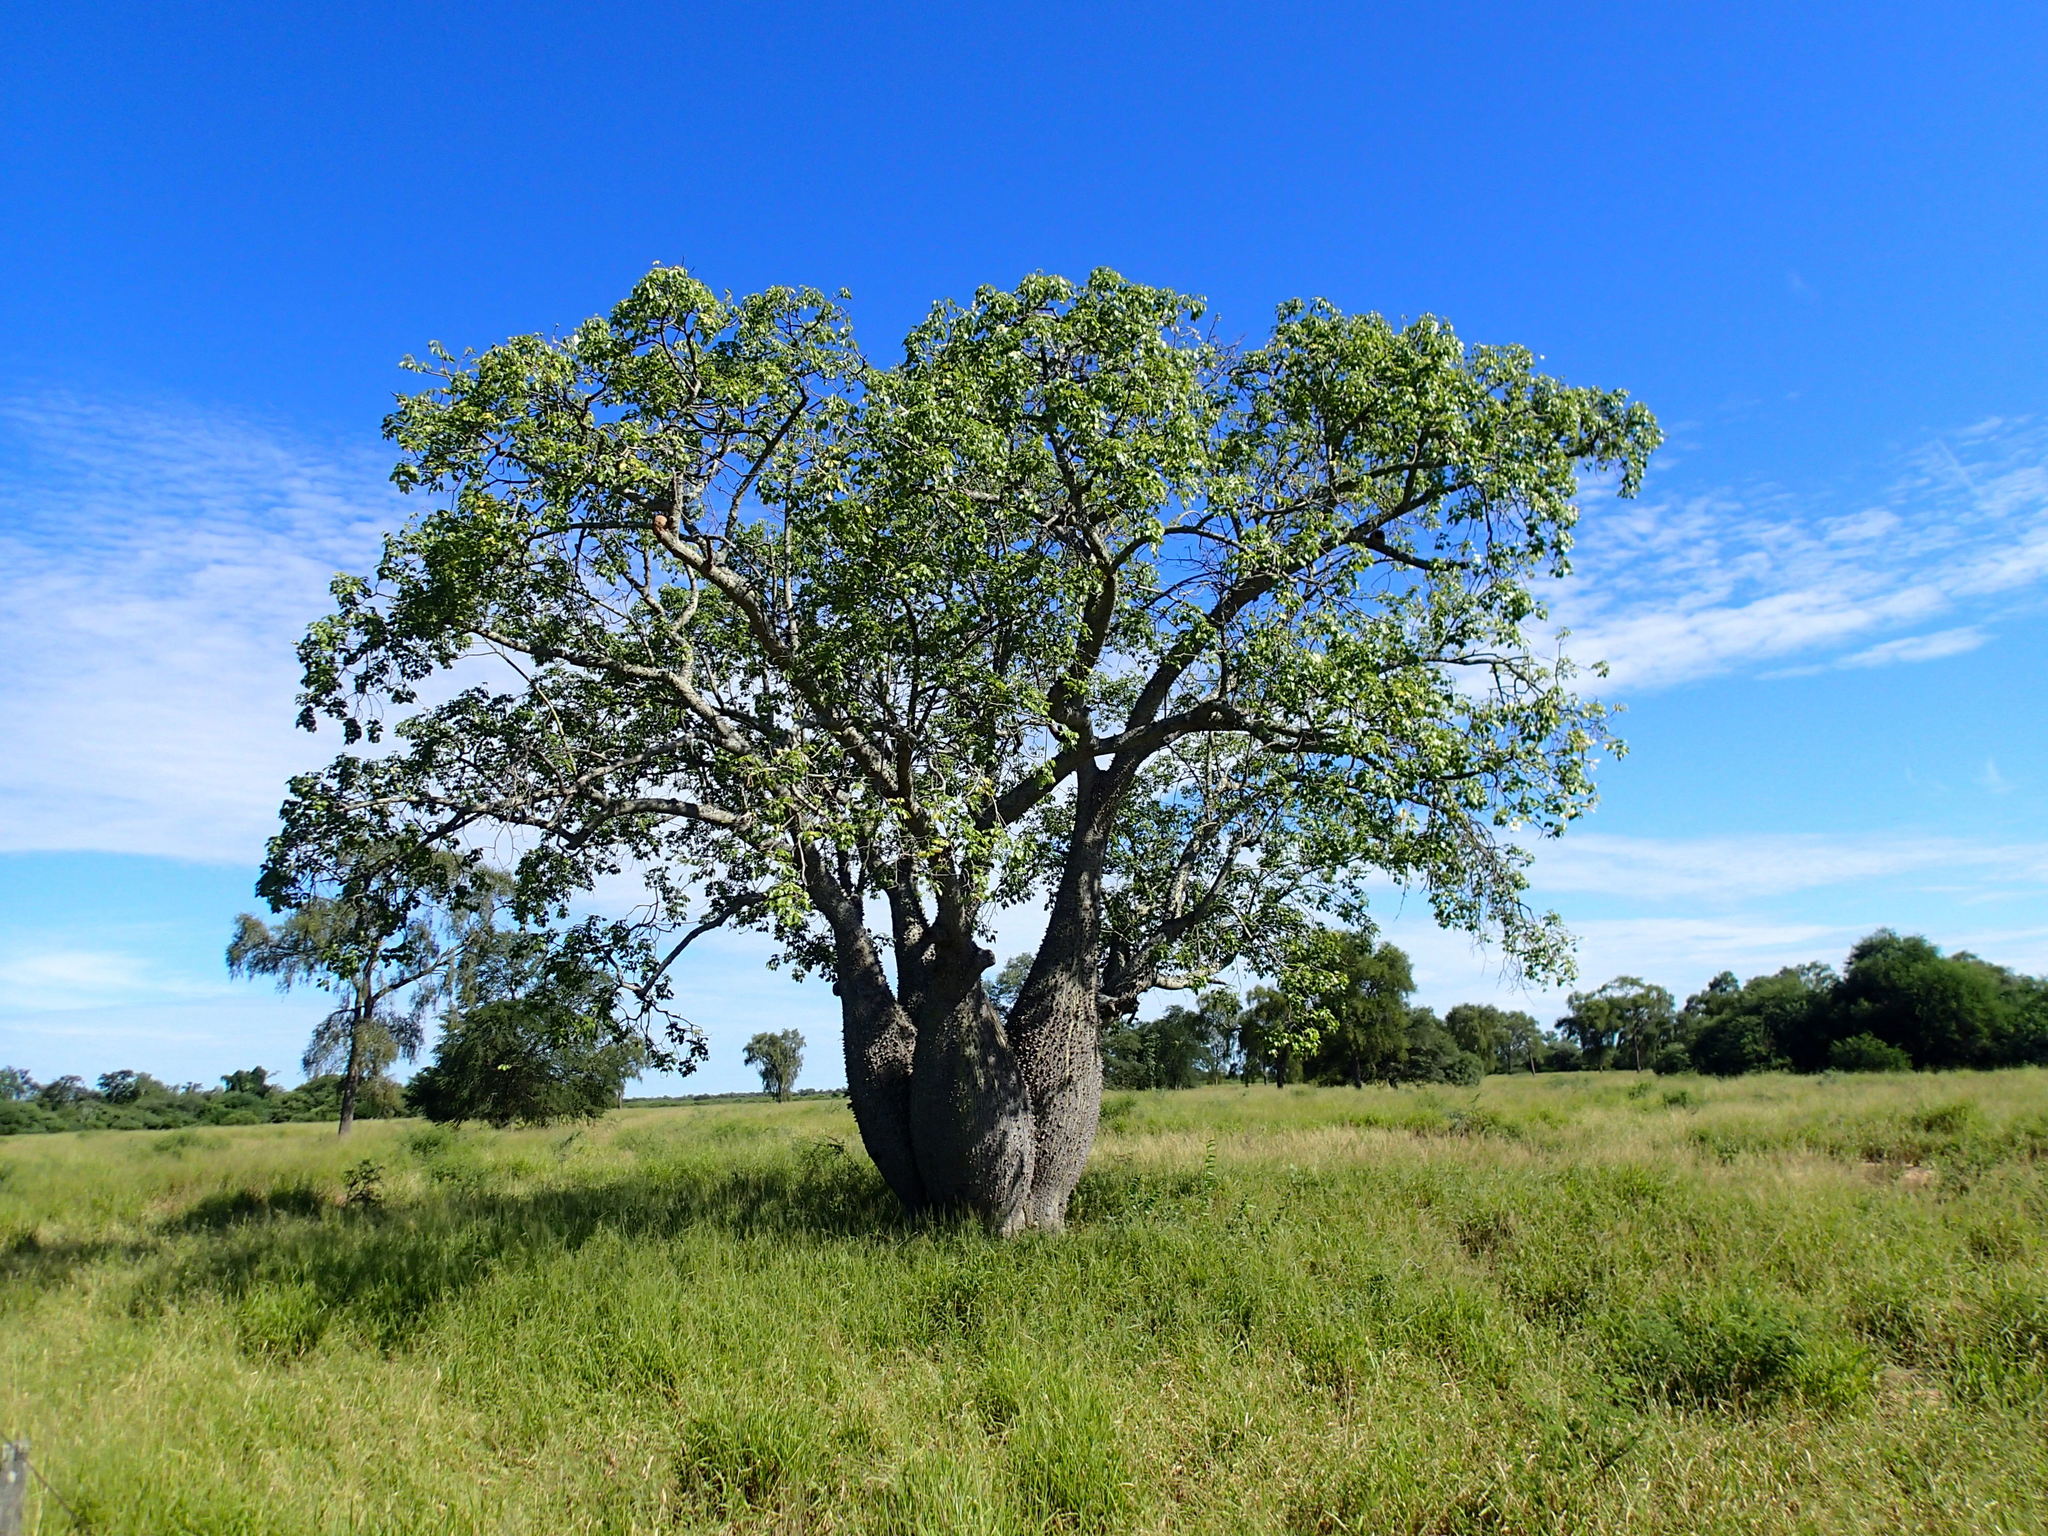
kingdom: Plantae
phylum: Tracheophyta
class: Magnoliopsida
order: Malvales
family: Malvaceae
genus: Ceiba
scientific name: Ceiba chodatii
